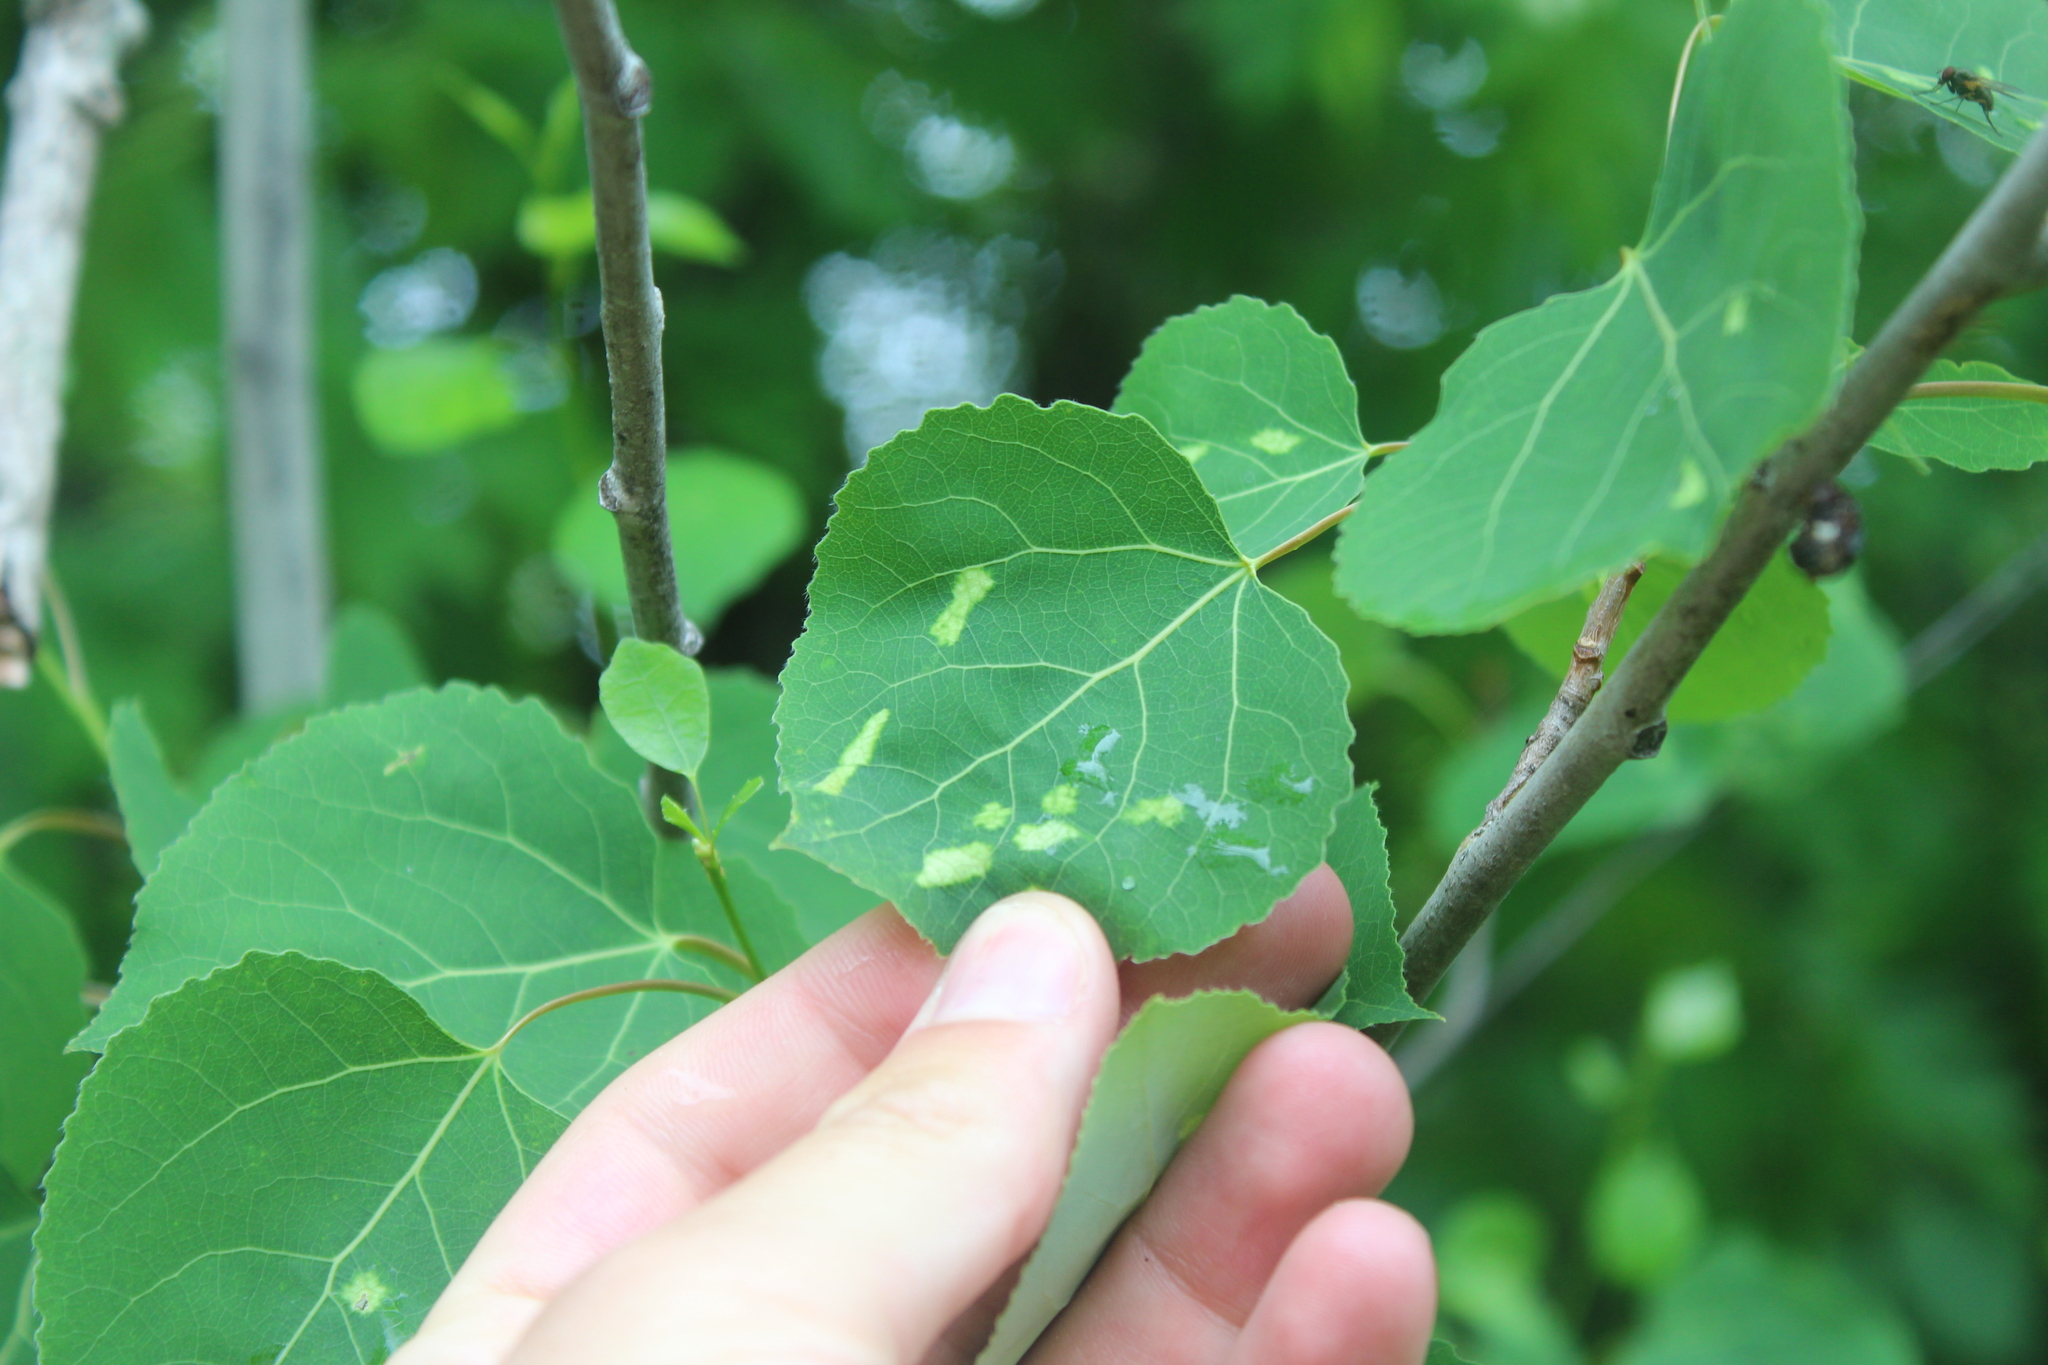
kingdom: Animalia
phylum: Arthropoda
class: Arachnida
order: Trombidiformes
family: Eriophyidae
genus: Phyllocoptes
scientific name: Phyllocoptes
